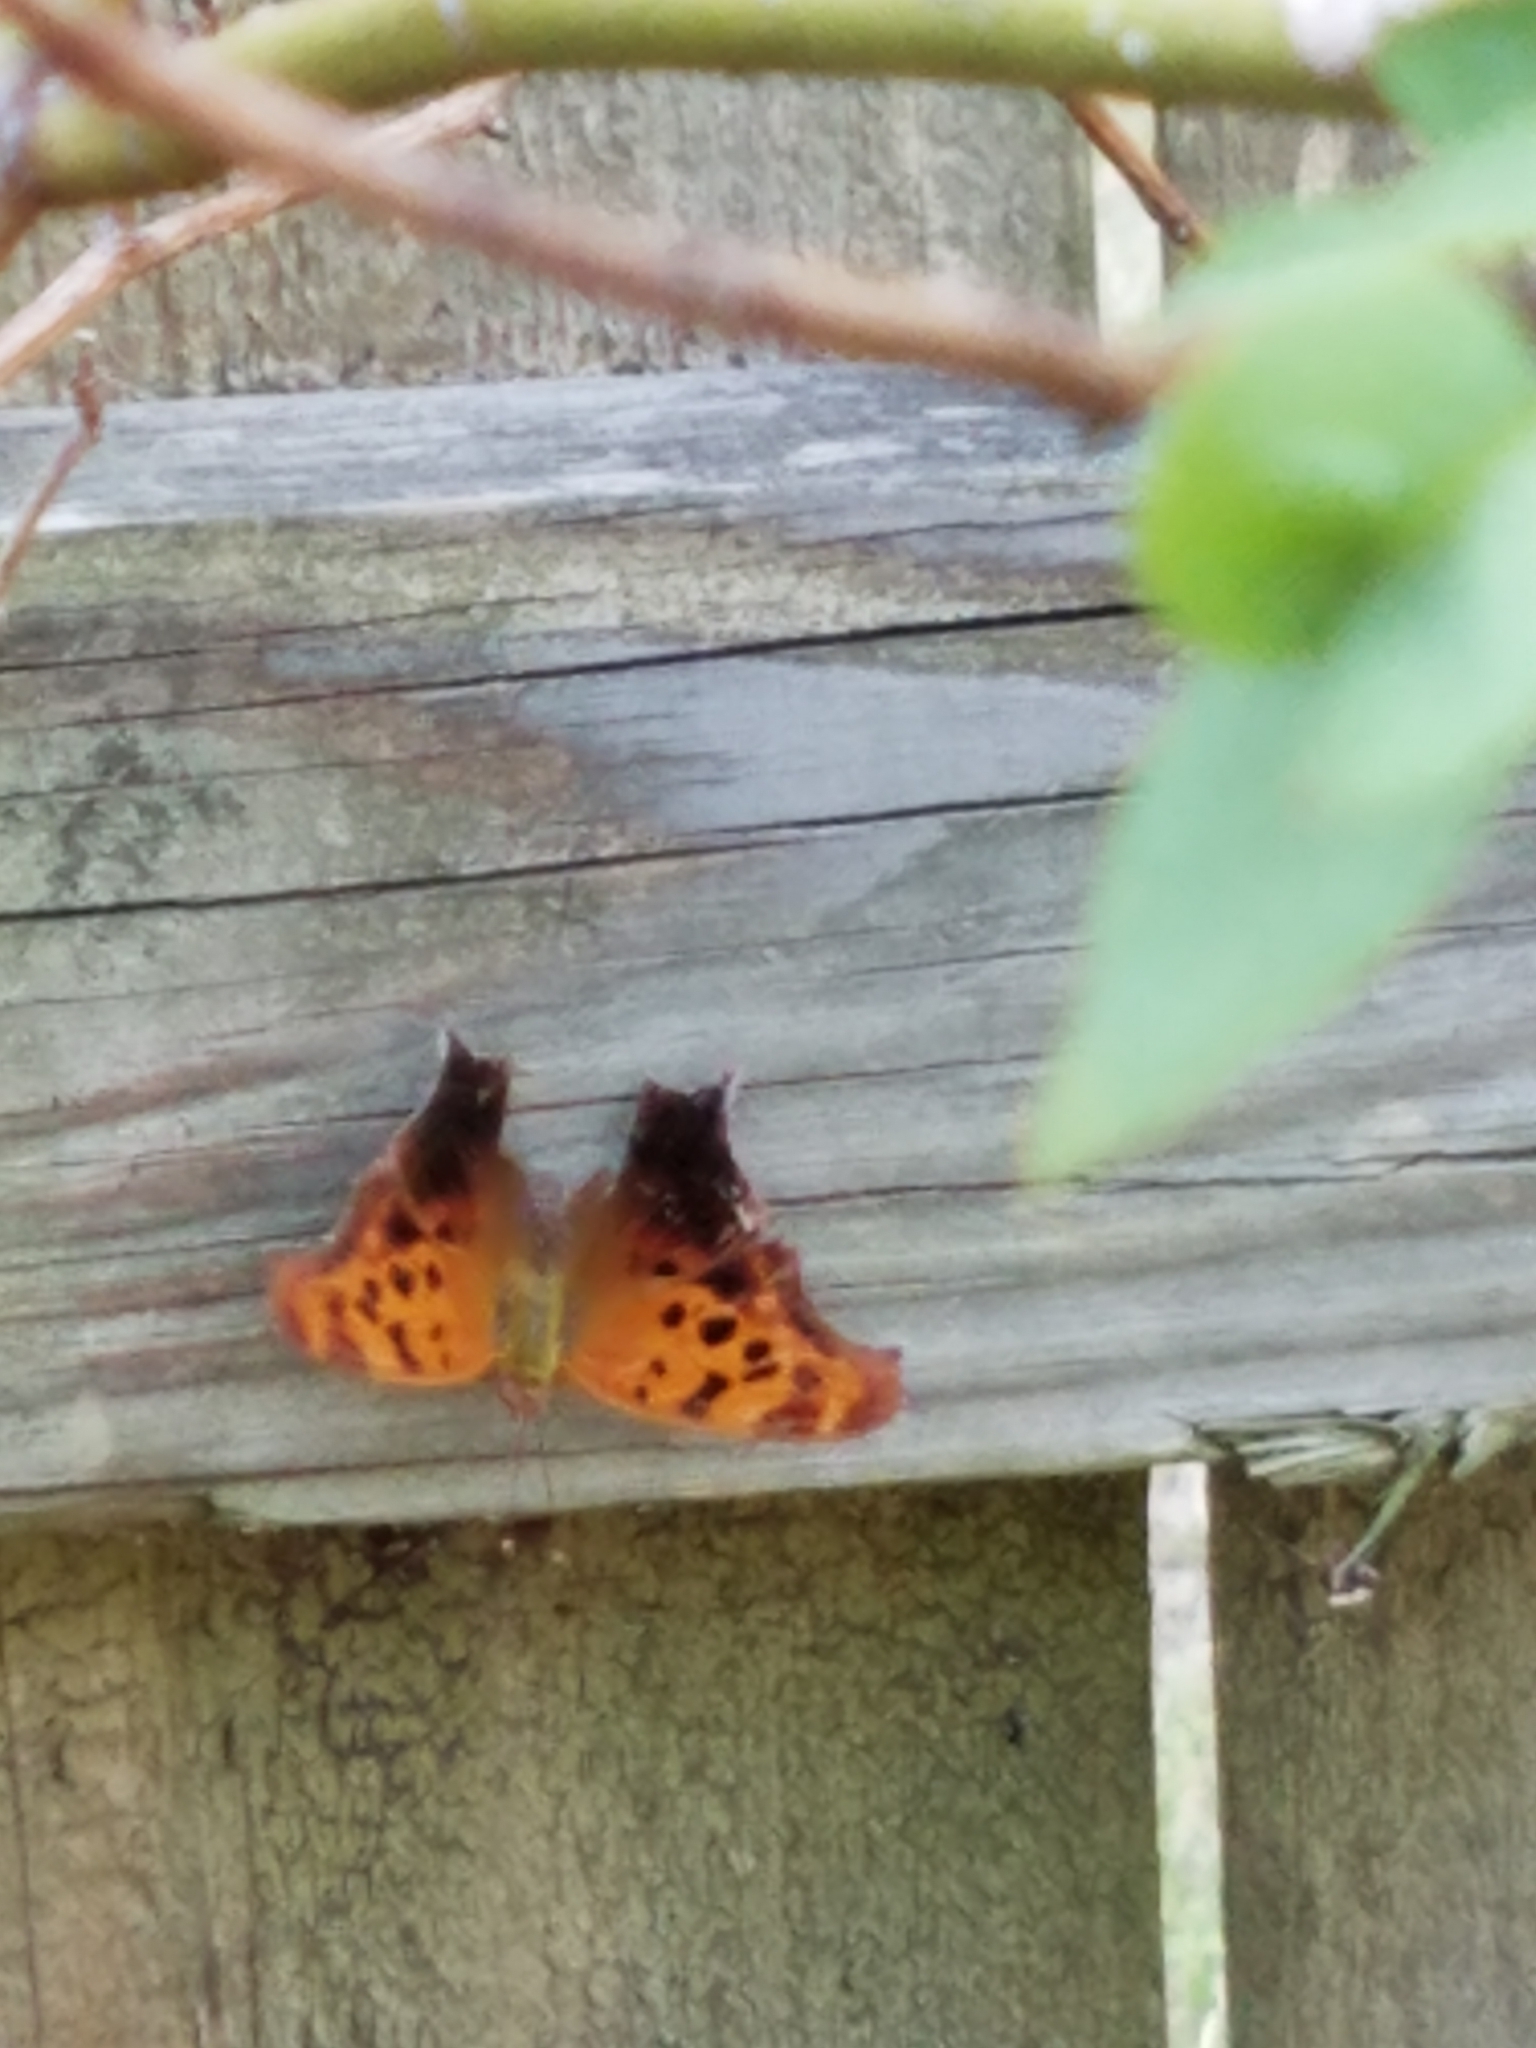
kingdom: Animalia
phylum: Arthropoda
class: Insecta
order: Lepidoptera
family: Nymphalidae
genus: Polygonia
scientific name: Polygonia interrogationis
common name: Question mark
